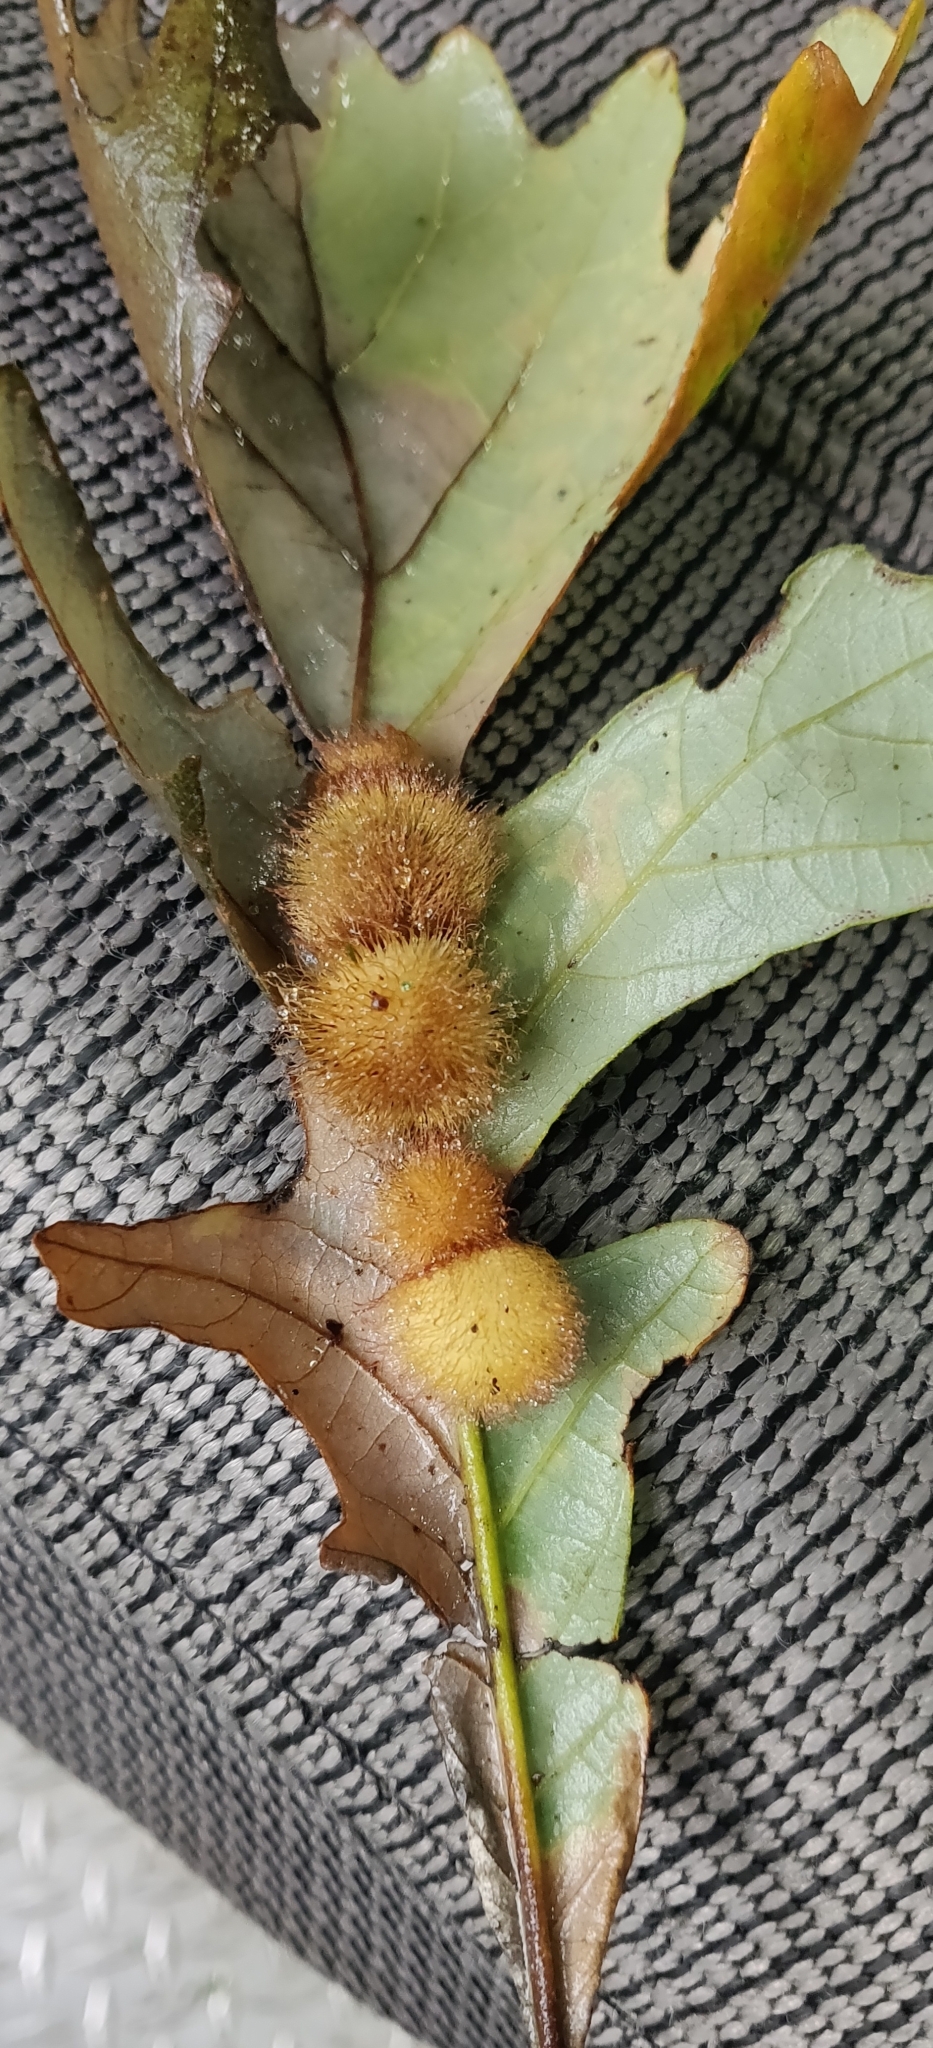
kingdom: Animalia
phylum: Arthropoda
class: Insecta
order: Hymenoptera
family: Cynipidae
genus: Acraspis
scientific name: Acraspis villosa
